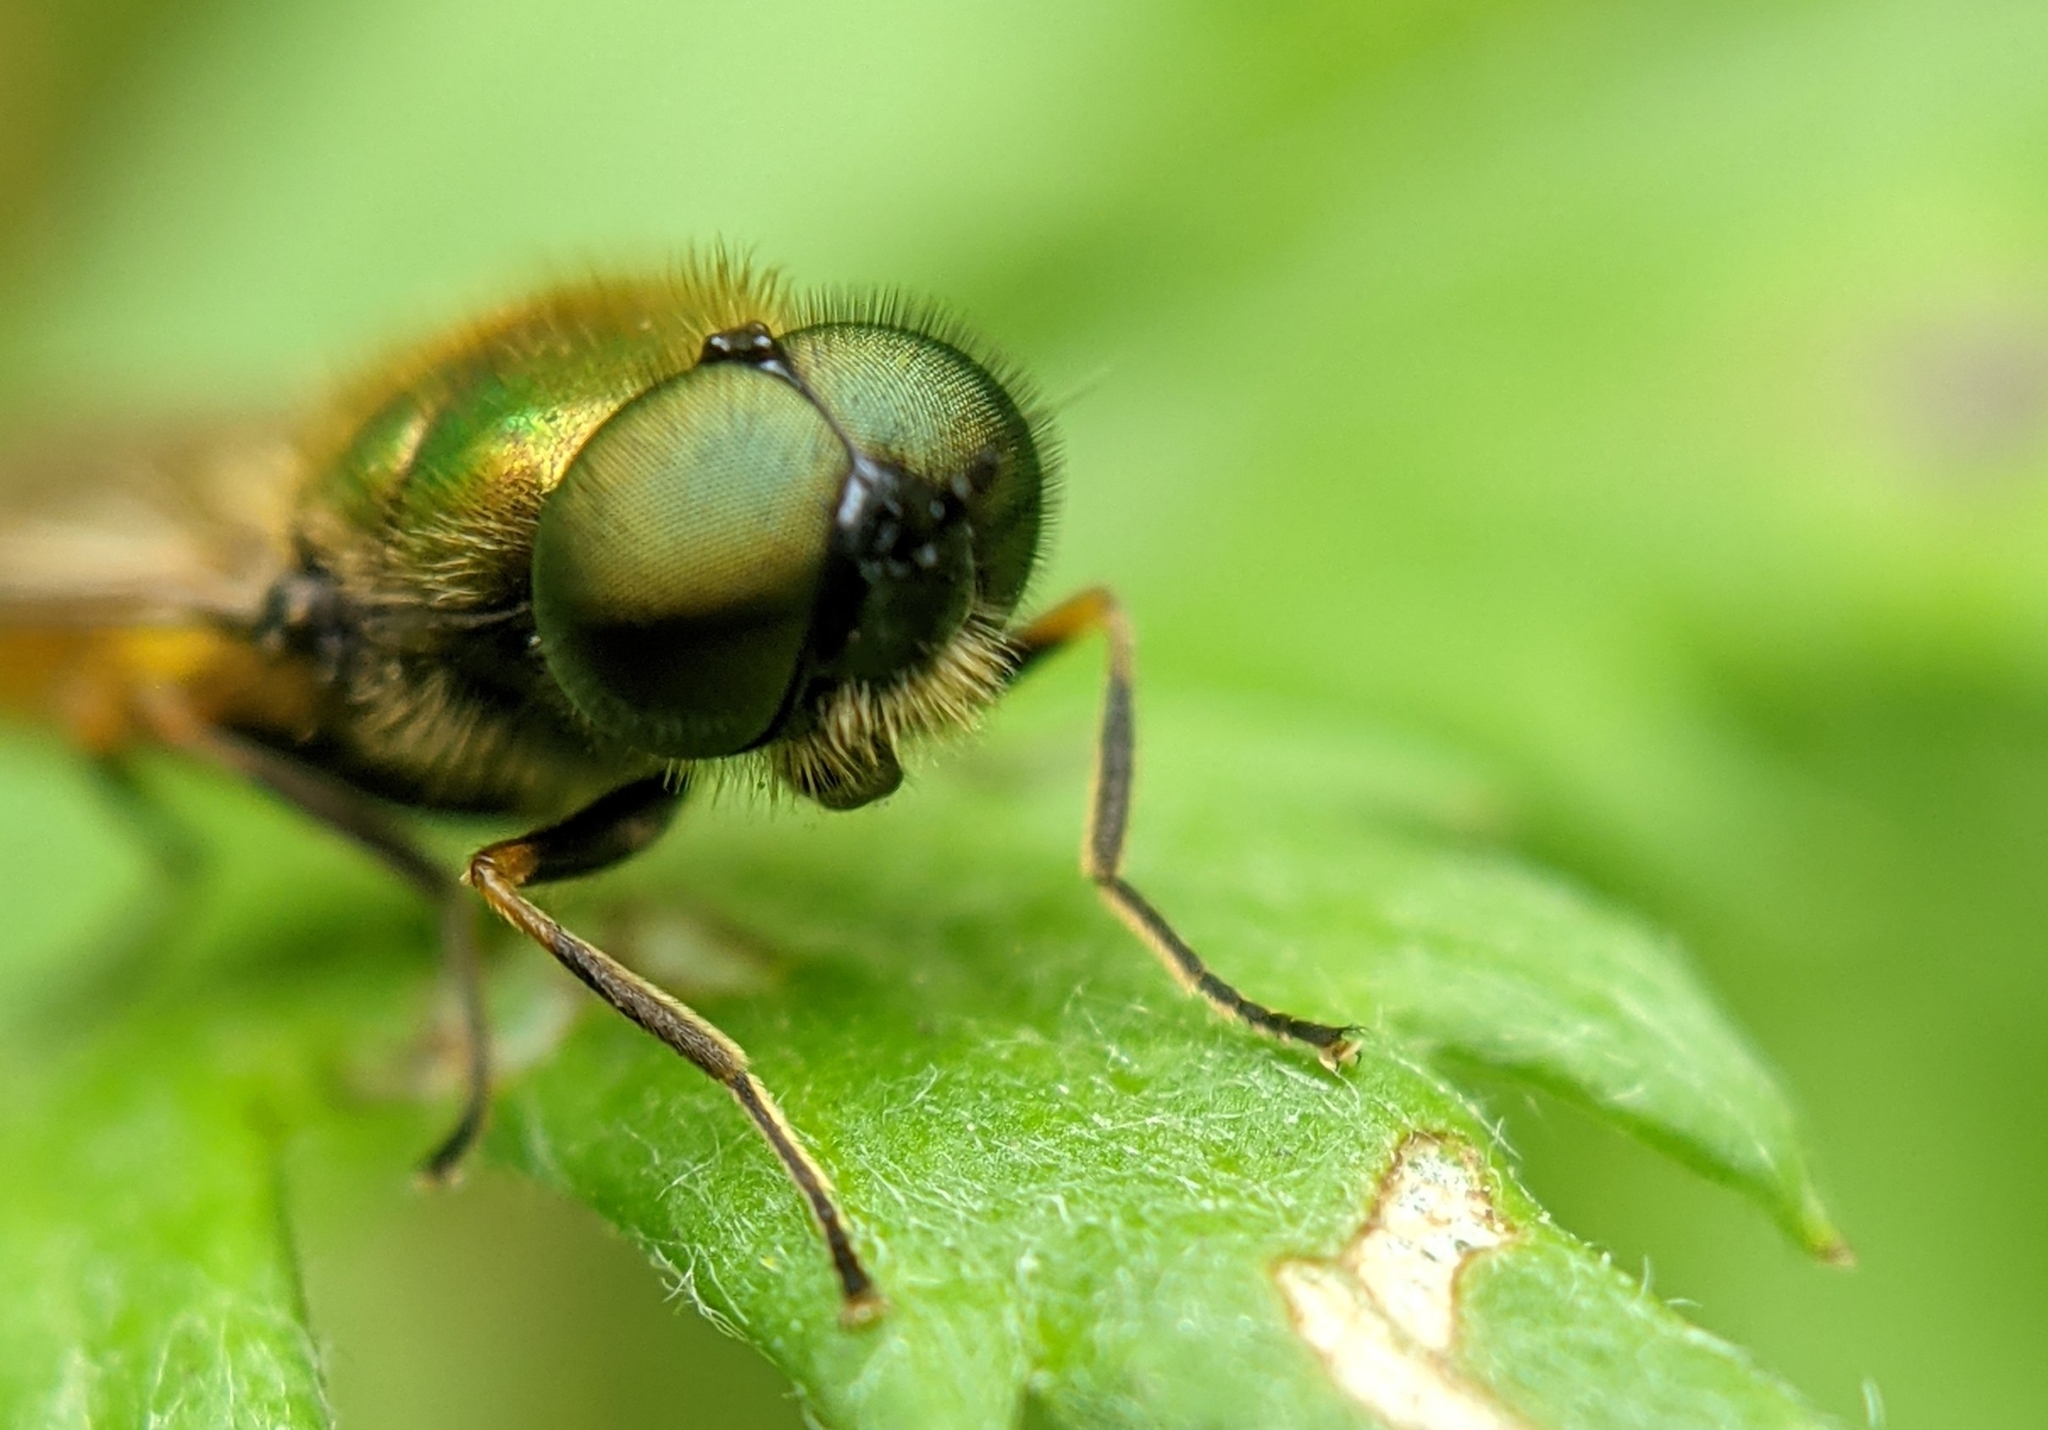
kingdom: Animalia
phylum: Arthropoda
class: Insecta
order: Diptera
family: Stratiomyidae
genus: Chloromyia
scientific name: Chloromyia formosa
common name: Soldier fly
